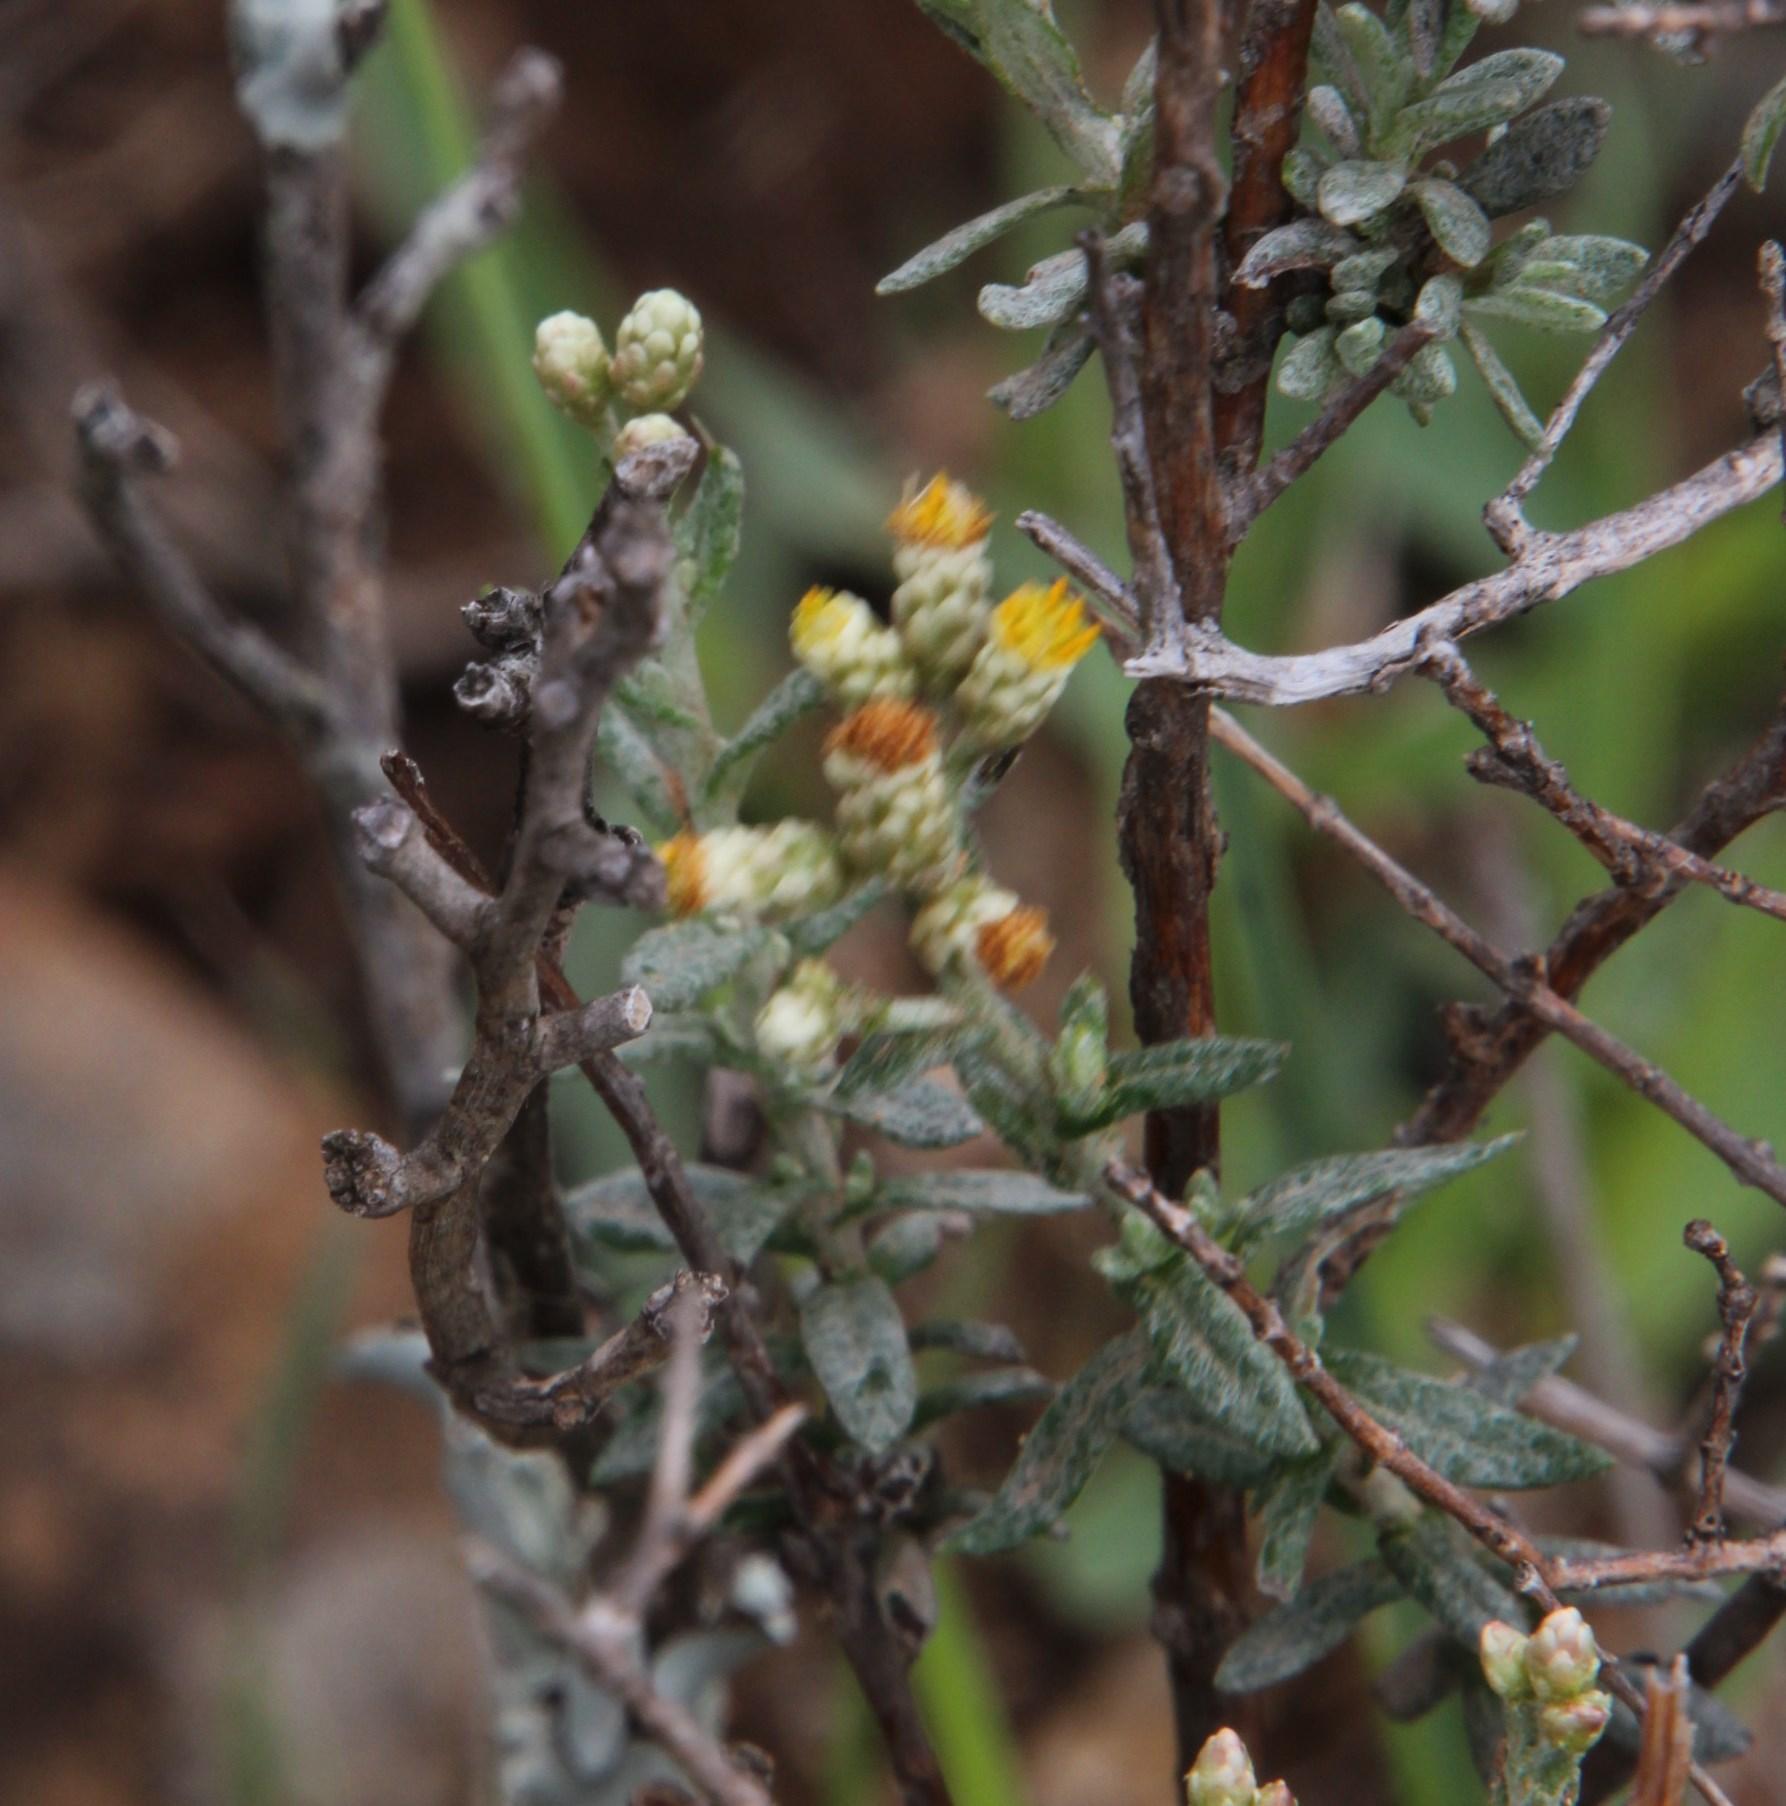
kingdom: Plantae
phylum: Tracheophyta
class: Magnoliopsida
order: Asterales
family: Asteraceae
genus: Helichrysum
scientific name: Helichrysum rosum
